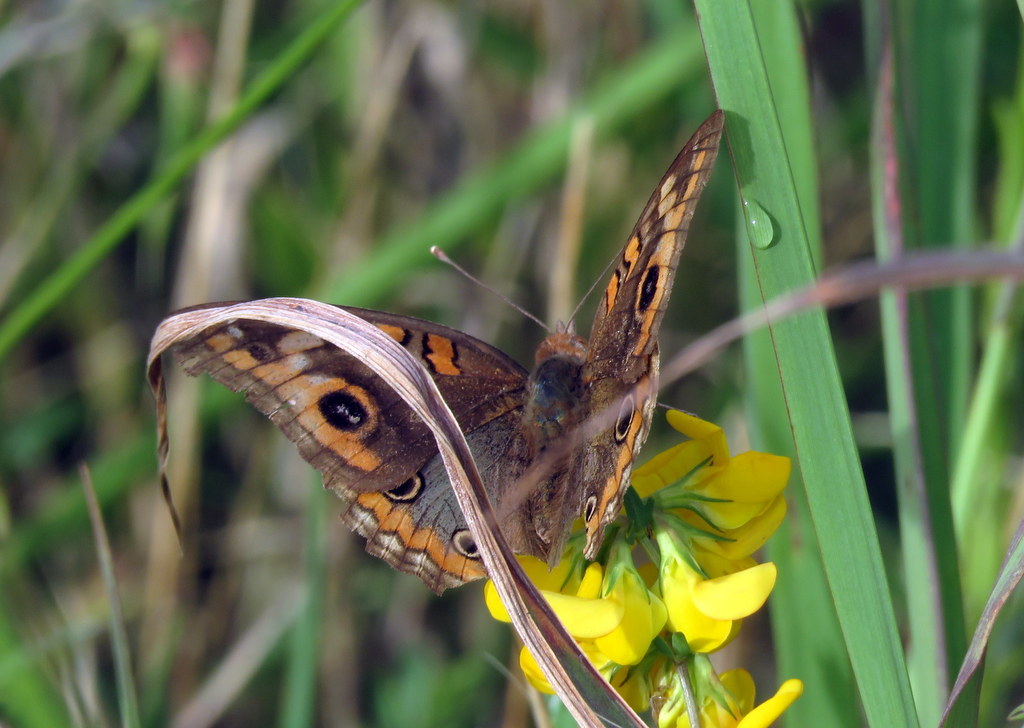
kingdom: Animalia
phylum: Arthropoda
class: Insecta
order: Lepidoptera
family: Nymphalidae
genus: Junonia
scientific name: Junonia lavinia
